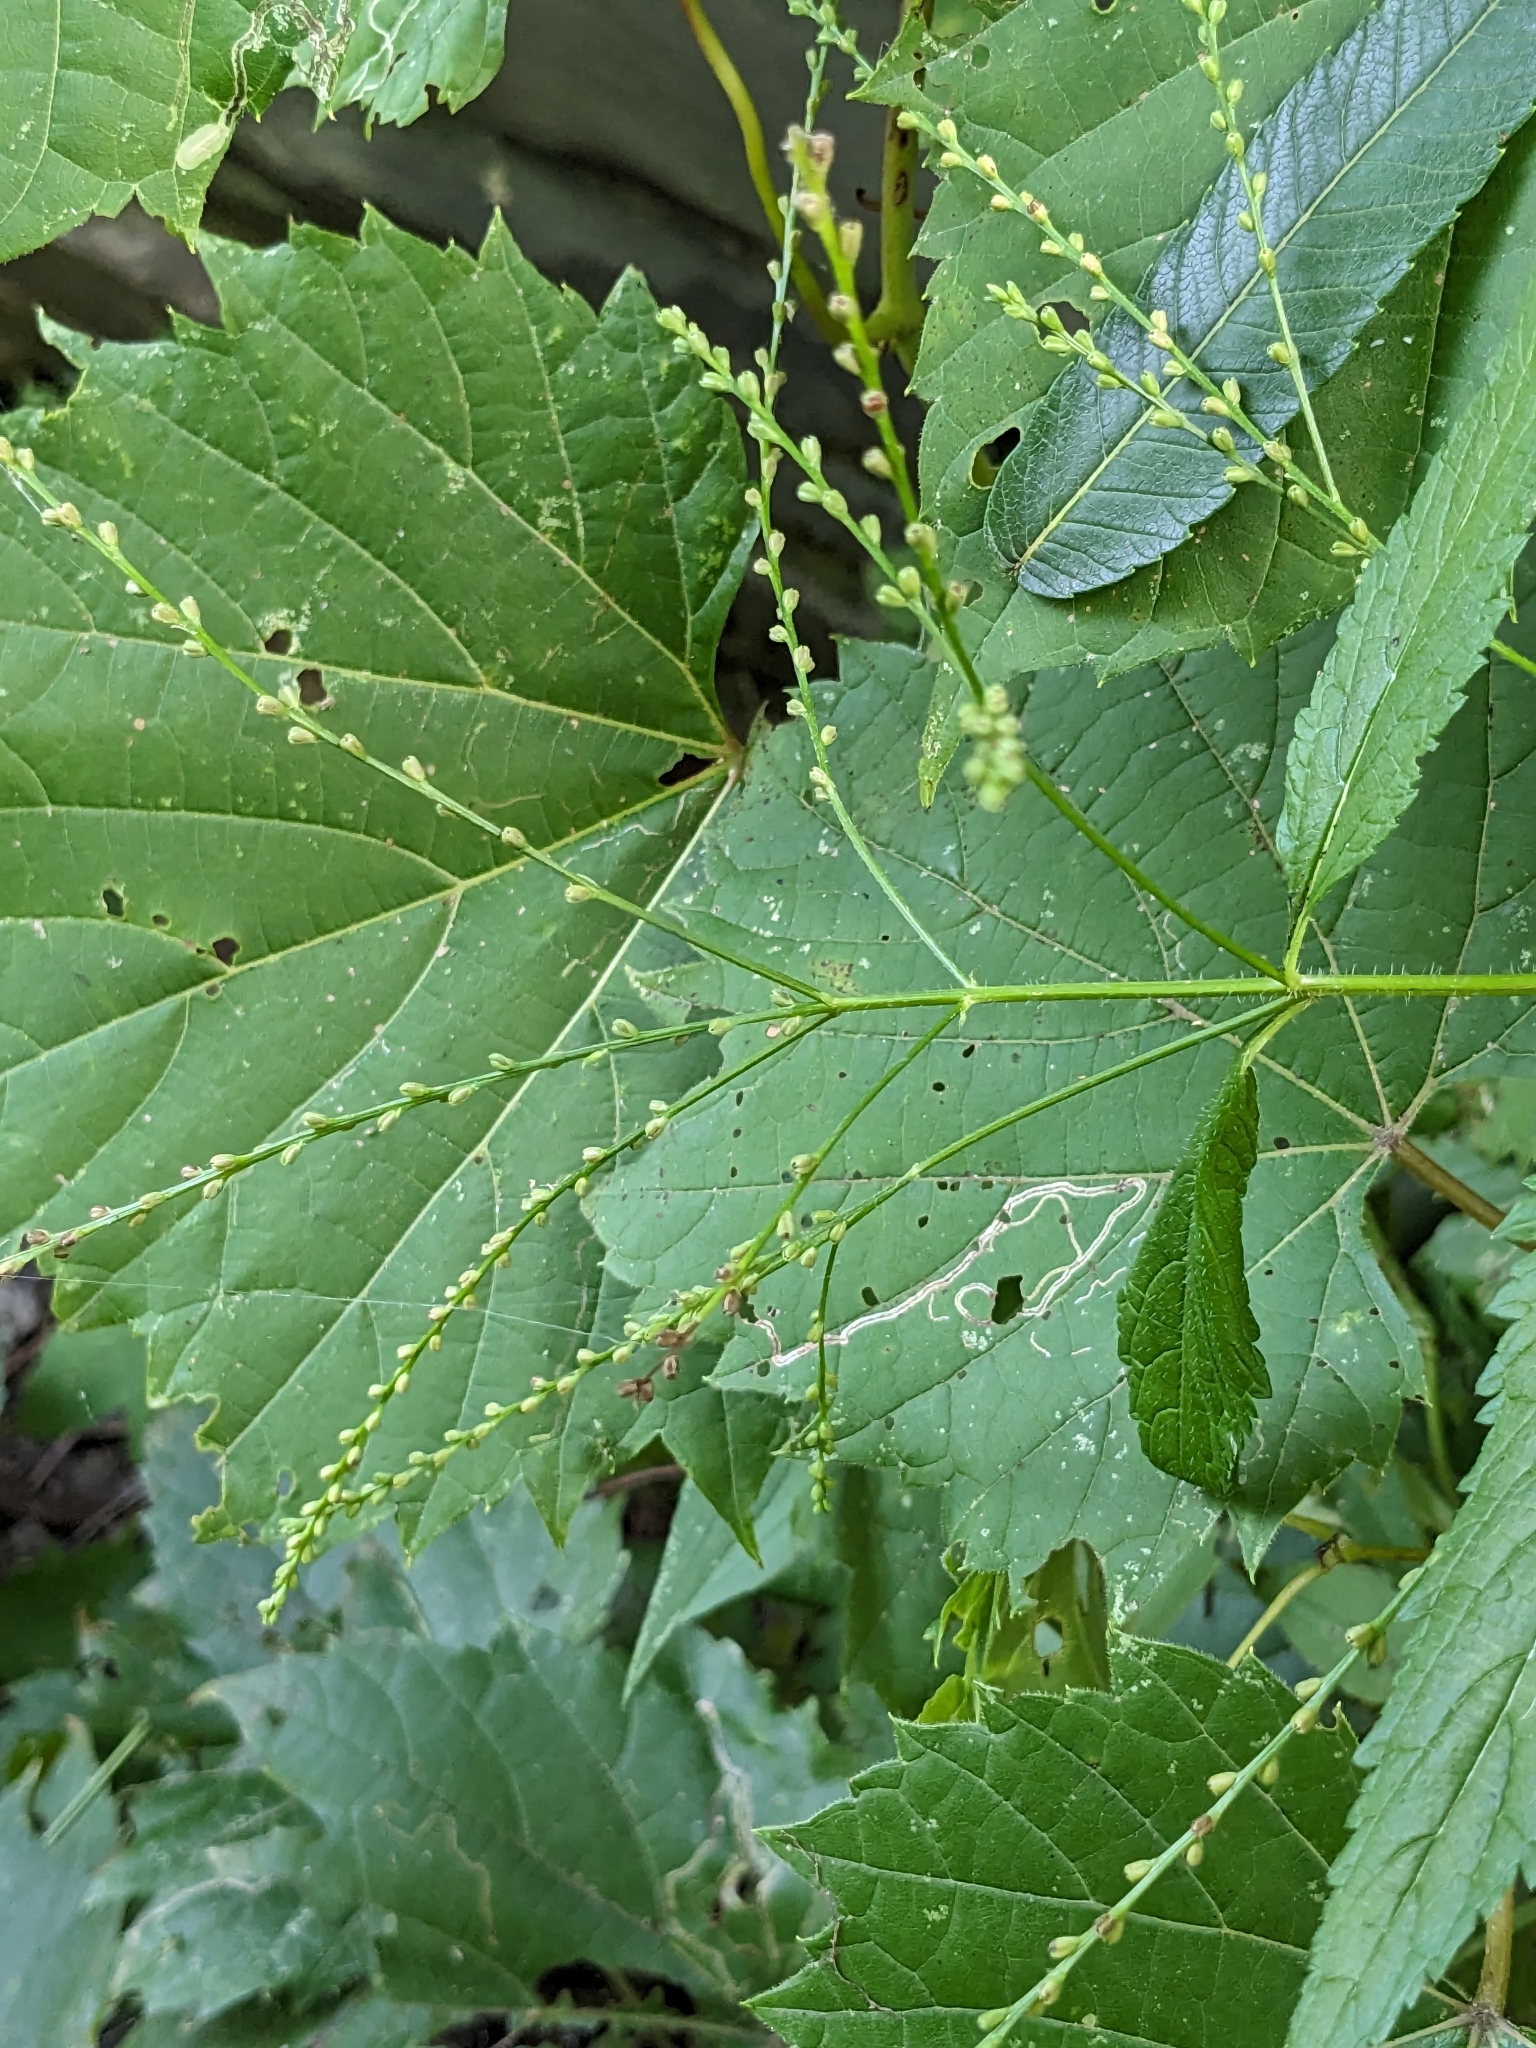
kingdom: Plantae
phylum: Tracheophyta
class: Magnoliopsida
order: Lamiales
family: Verbenaceae
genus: Verbena
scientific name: Verbena urticifolia
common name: Nettle-leaved vervain
